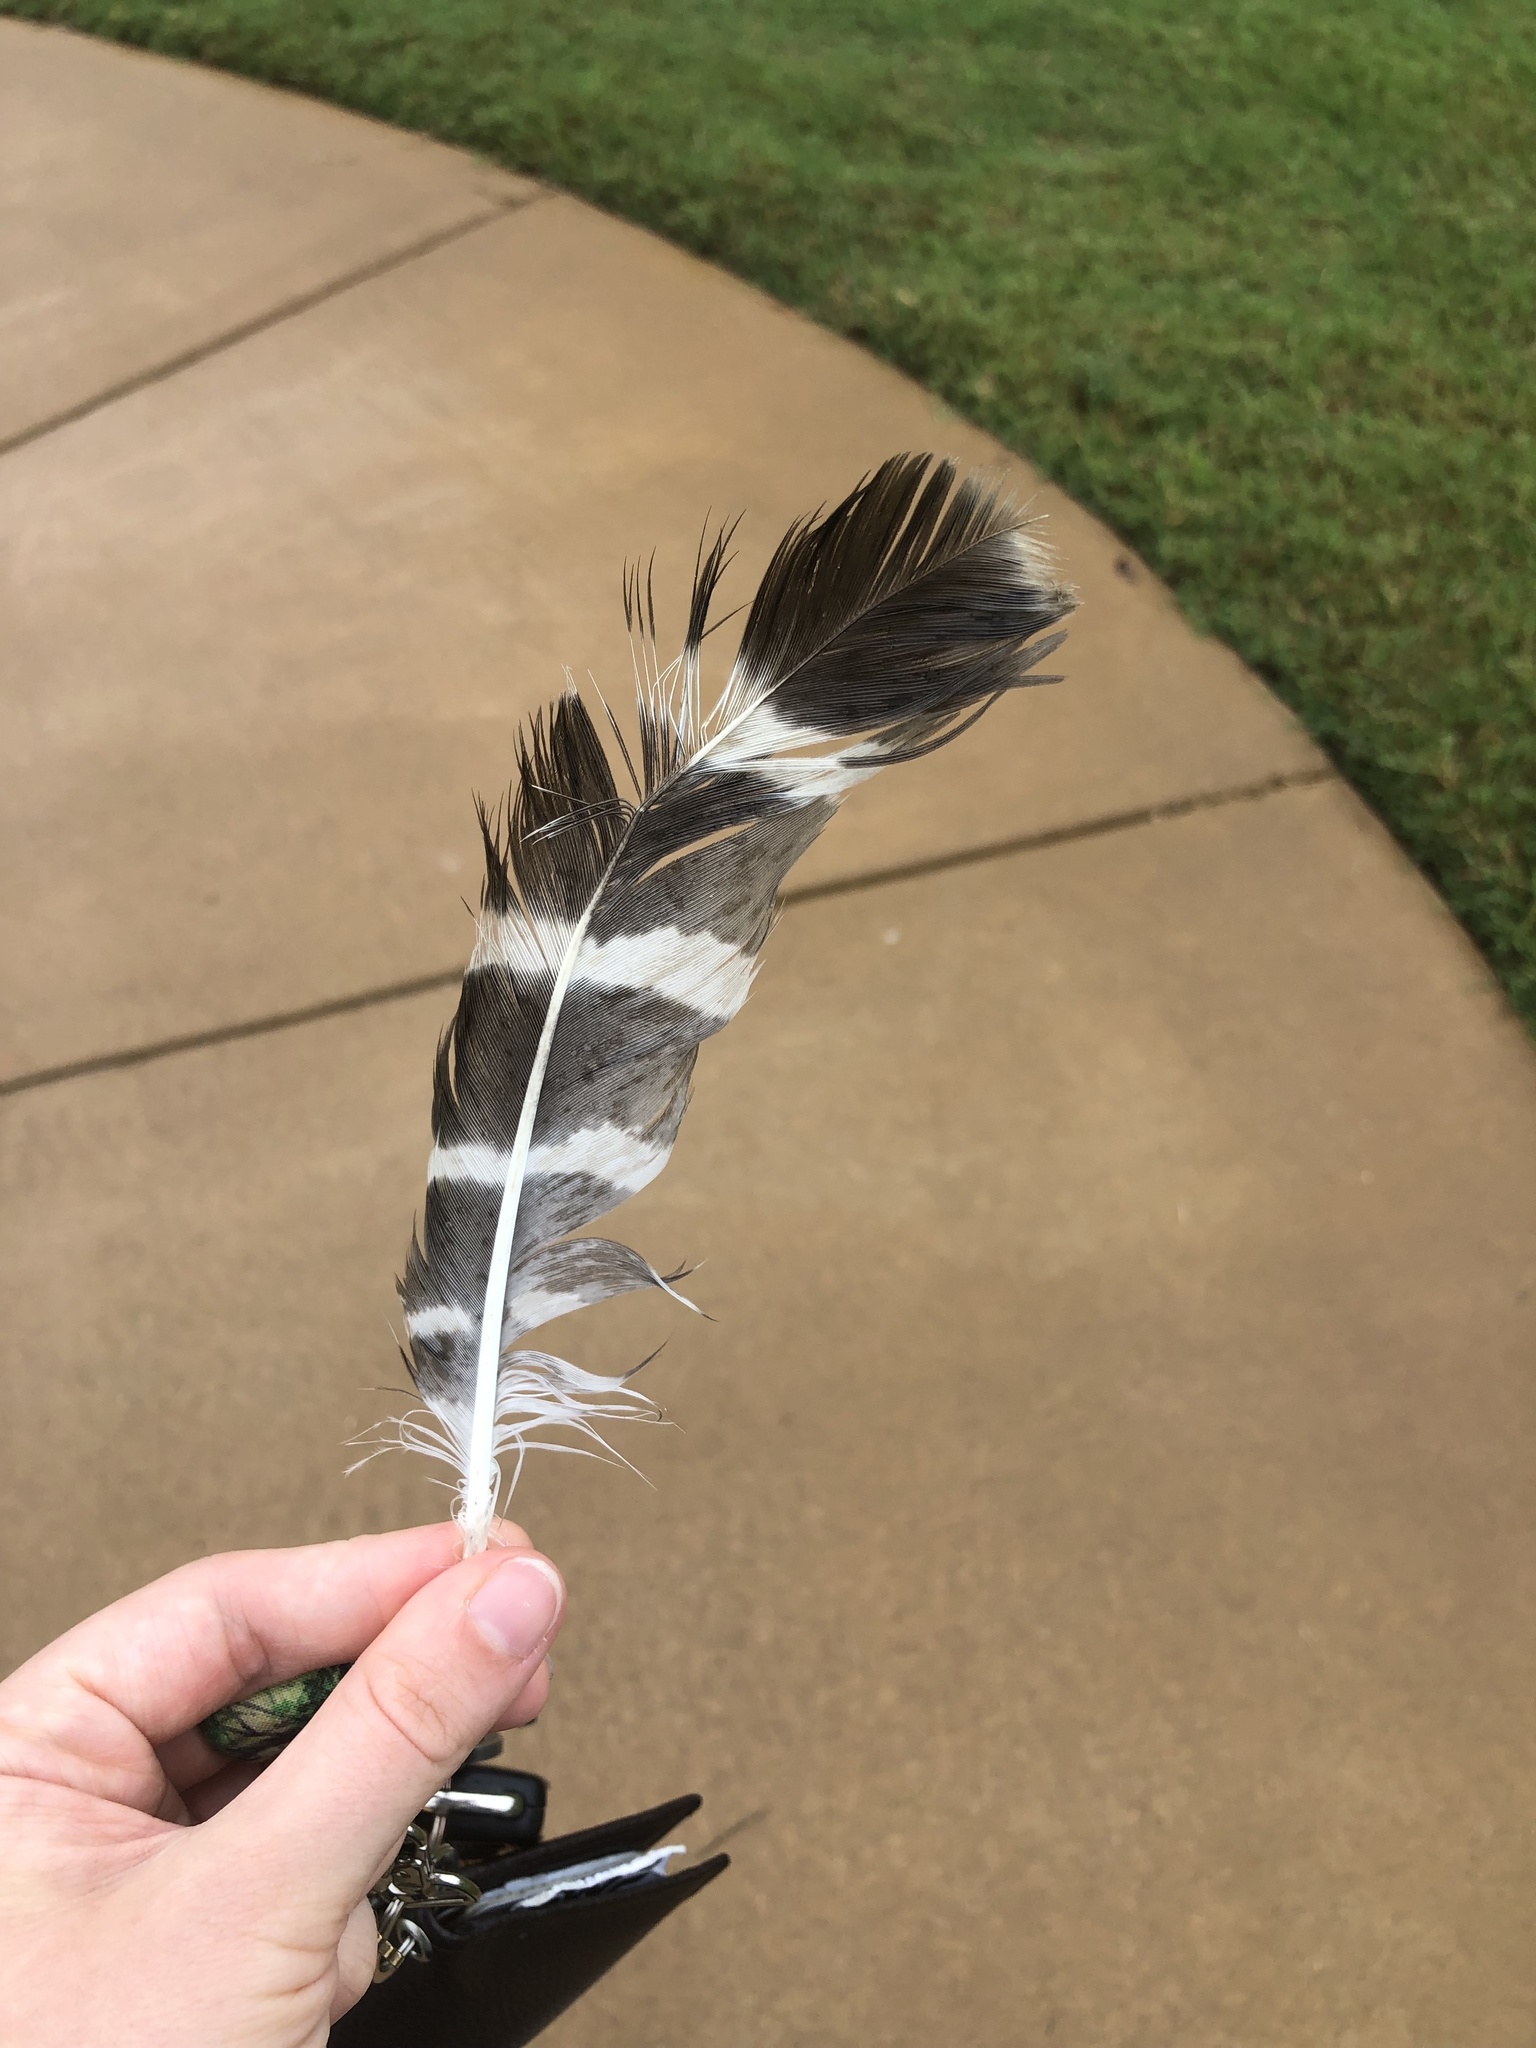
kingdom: Animalia
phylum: Chordata
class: Aves
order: Accipitriformes
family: Accipitridae
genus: Buteo
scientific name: Buteo lineatus
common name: Red-shouldered hawk
